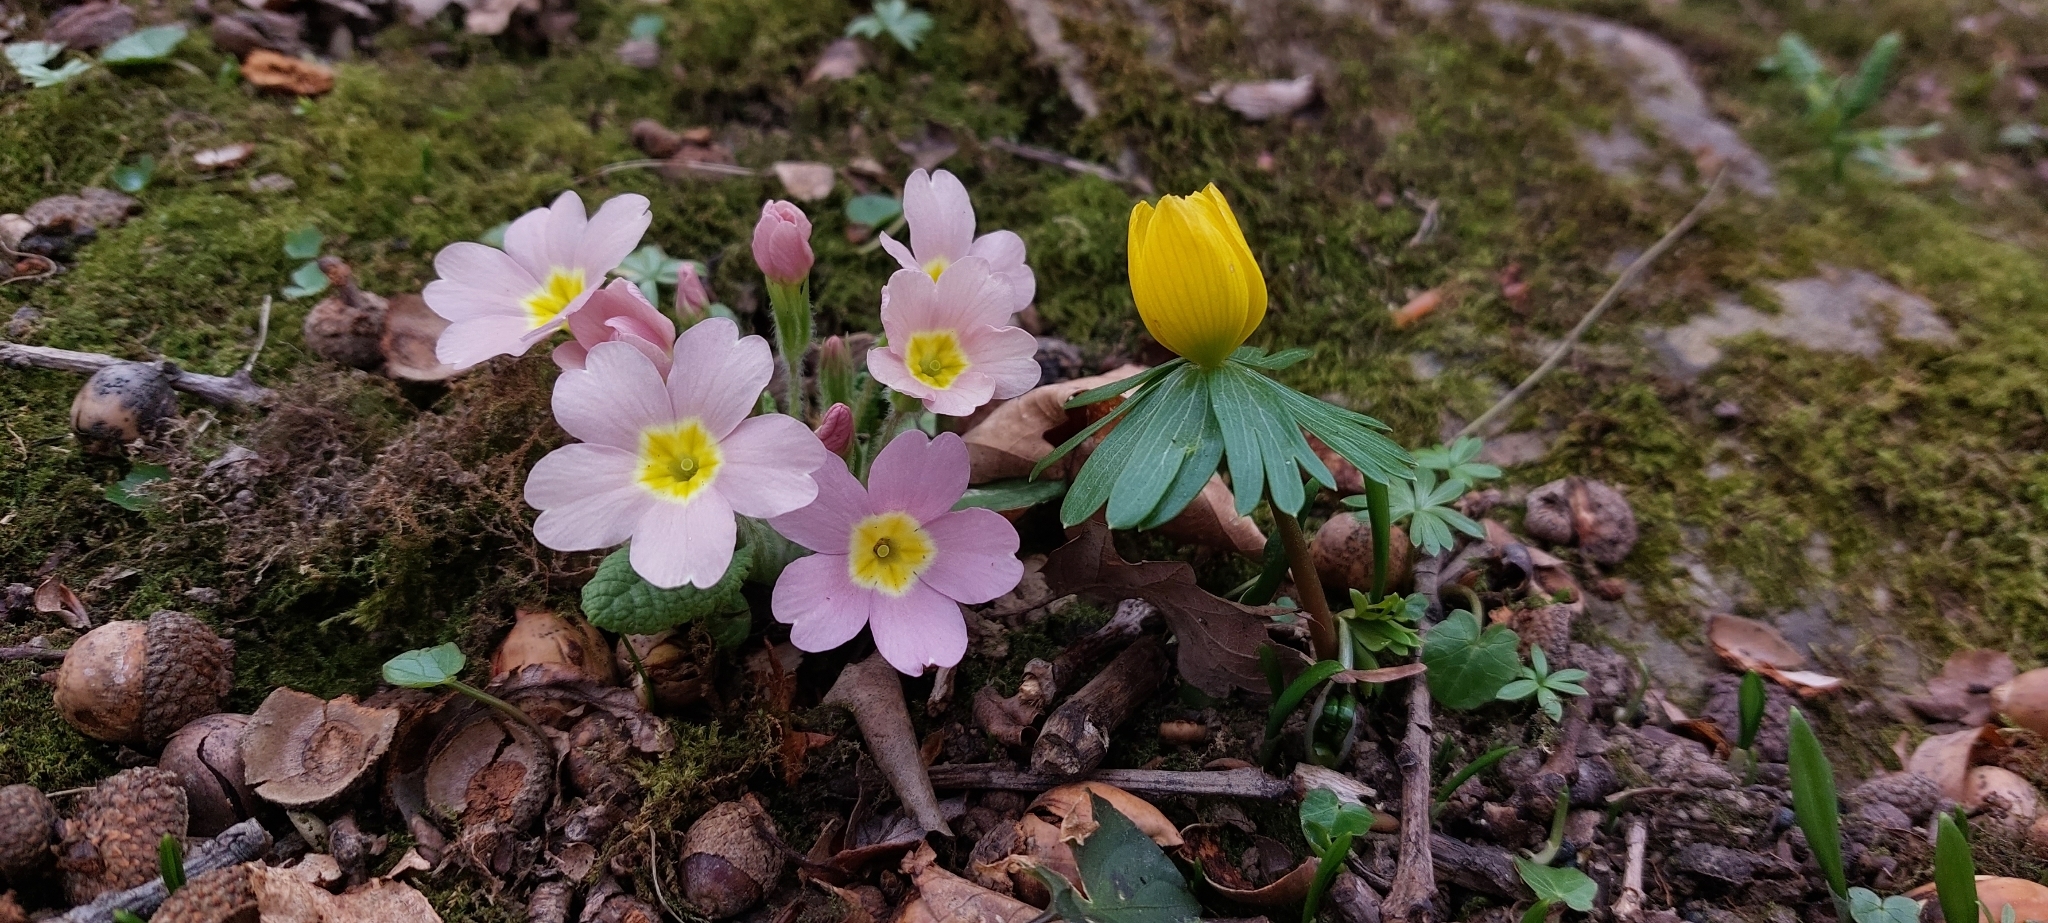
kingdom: Plantae
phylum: Tracheophyta
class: Magnoliopsida
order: Ranunculales
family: Ranunculaceae
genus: Eranthis
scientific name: Eranthis hyemalis
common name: Winter aconite
